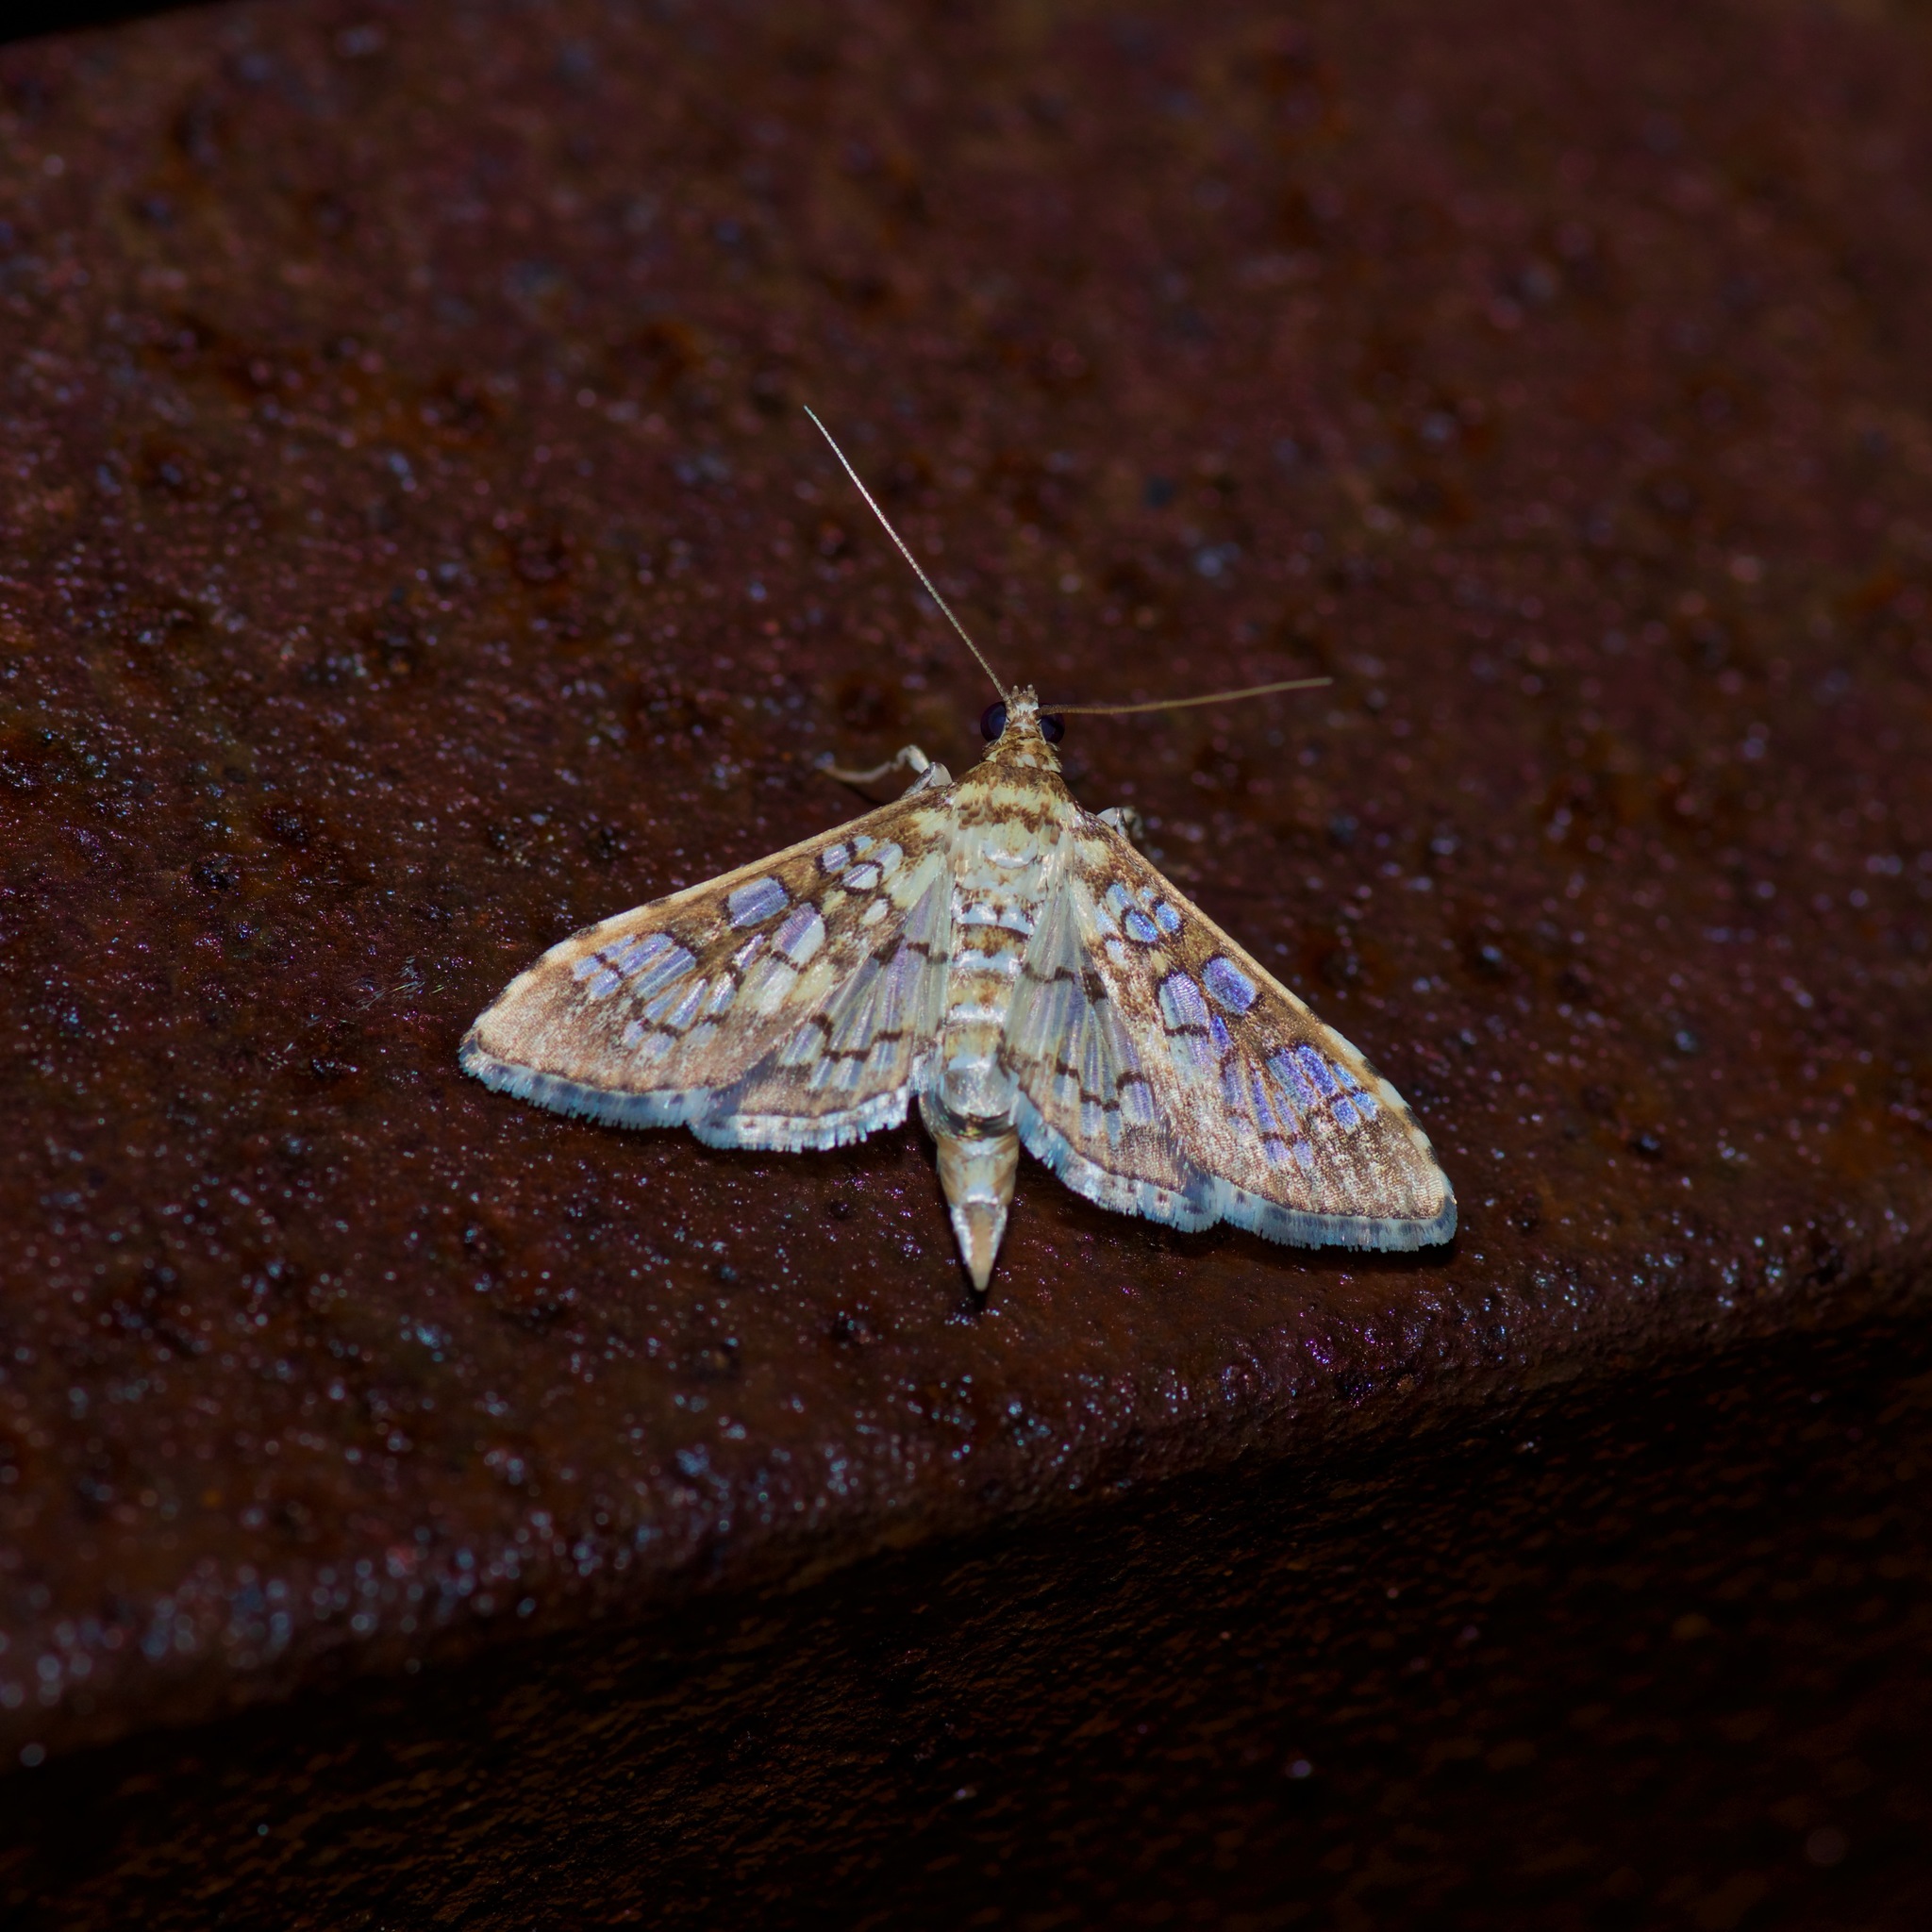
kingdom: Animalia
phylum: Arthropoda
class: Insecta
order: Lepidoptera
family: Crambidae
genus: Samea
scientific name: Samea ecclesialis
